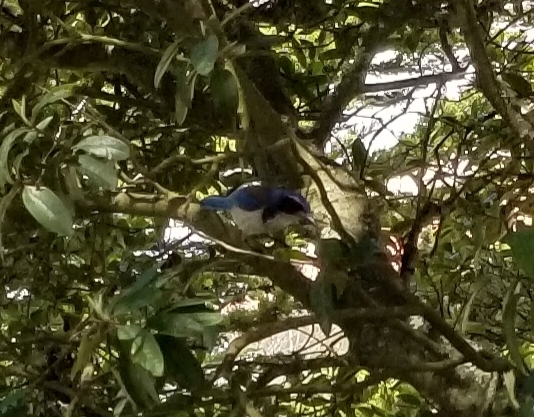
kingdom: Animalia
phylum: Chordata
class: Aves
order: Passeriformes
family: Corvidae
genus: Aphelocoma
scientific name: Aphelocoma californica
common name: California scrub-jay
